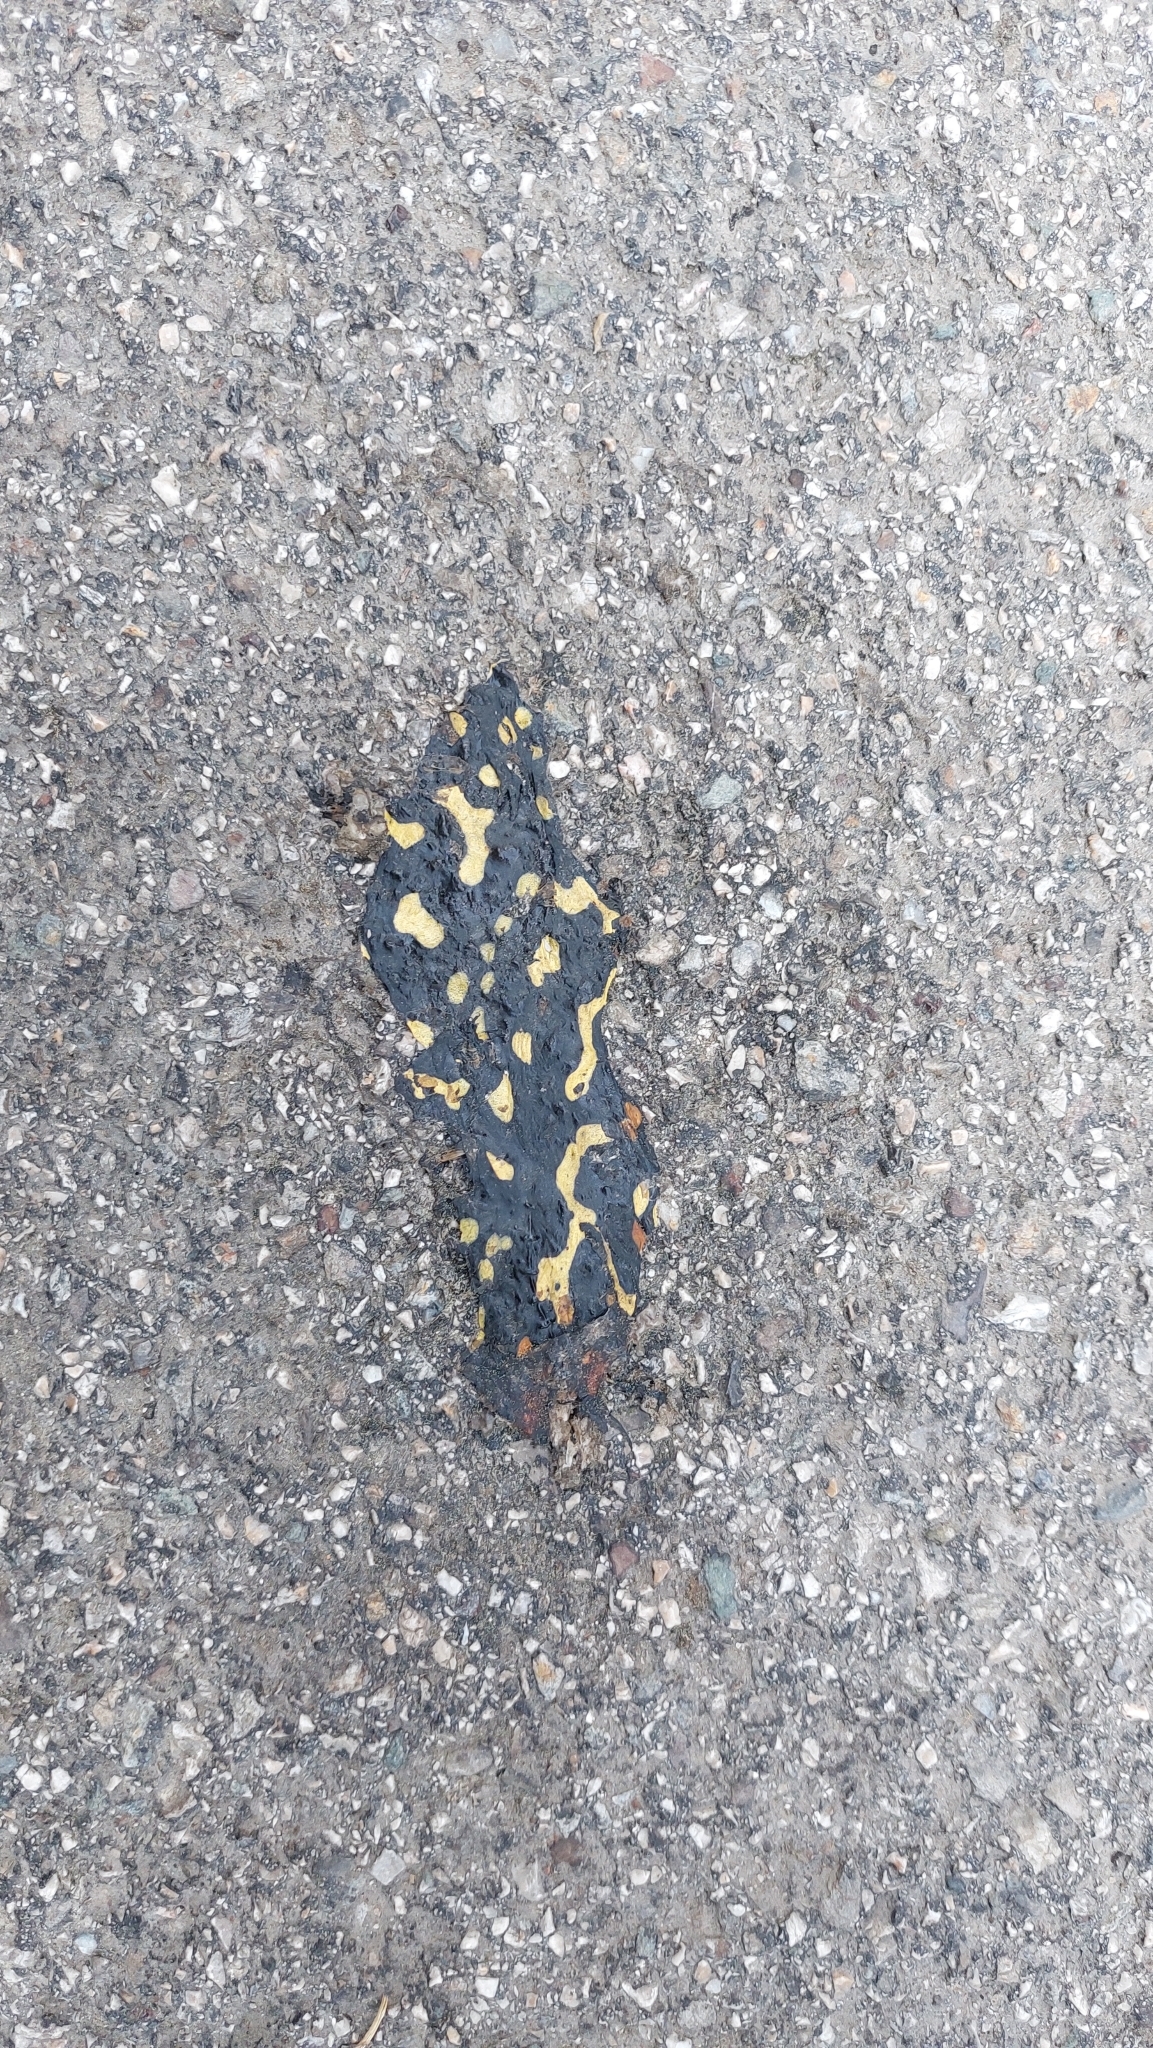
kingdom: Animalia
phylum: Chordata
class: Amphibia
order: Caudata
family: Salamandridae
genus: Salamandra
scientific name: Salamandra salamandra
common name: Fire salamander
